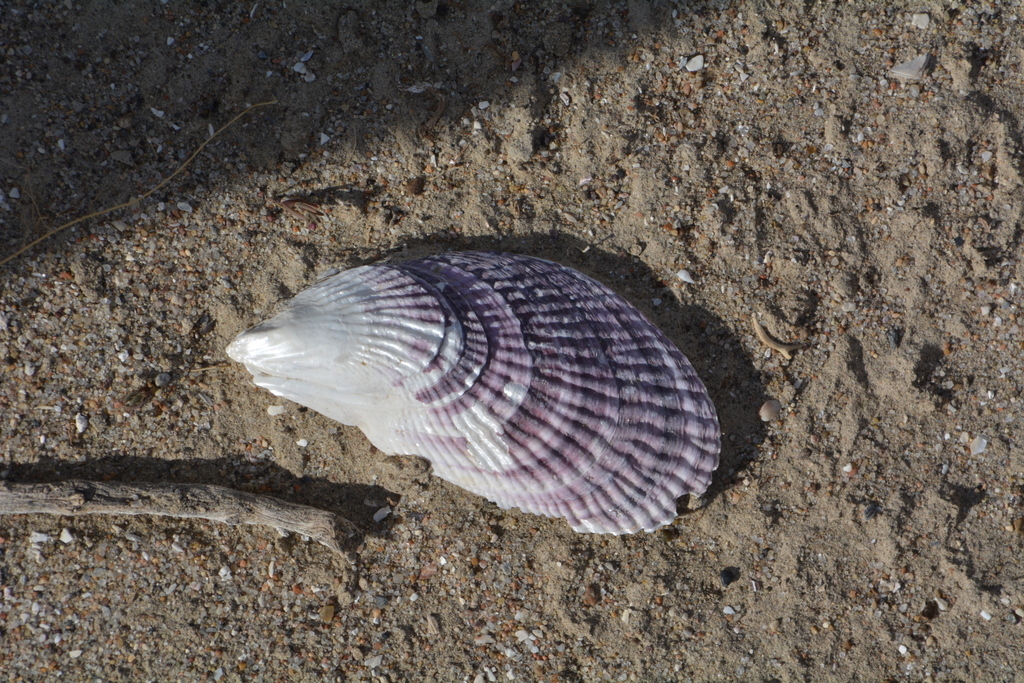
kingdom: Animalia
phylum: Mollusca
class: Bivalvia
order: Mytilida
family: Mytilidae
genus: Aulacomya
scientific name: Aulacomya atra
